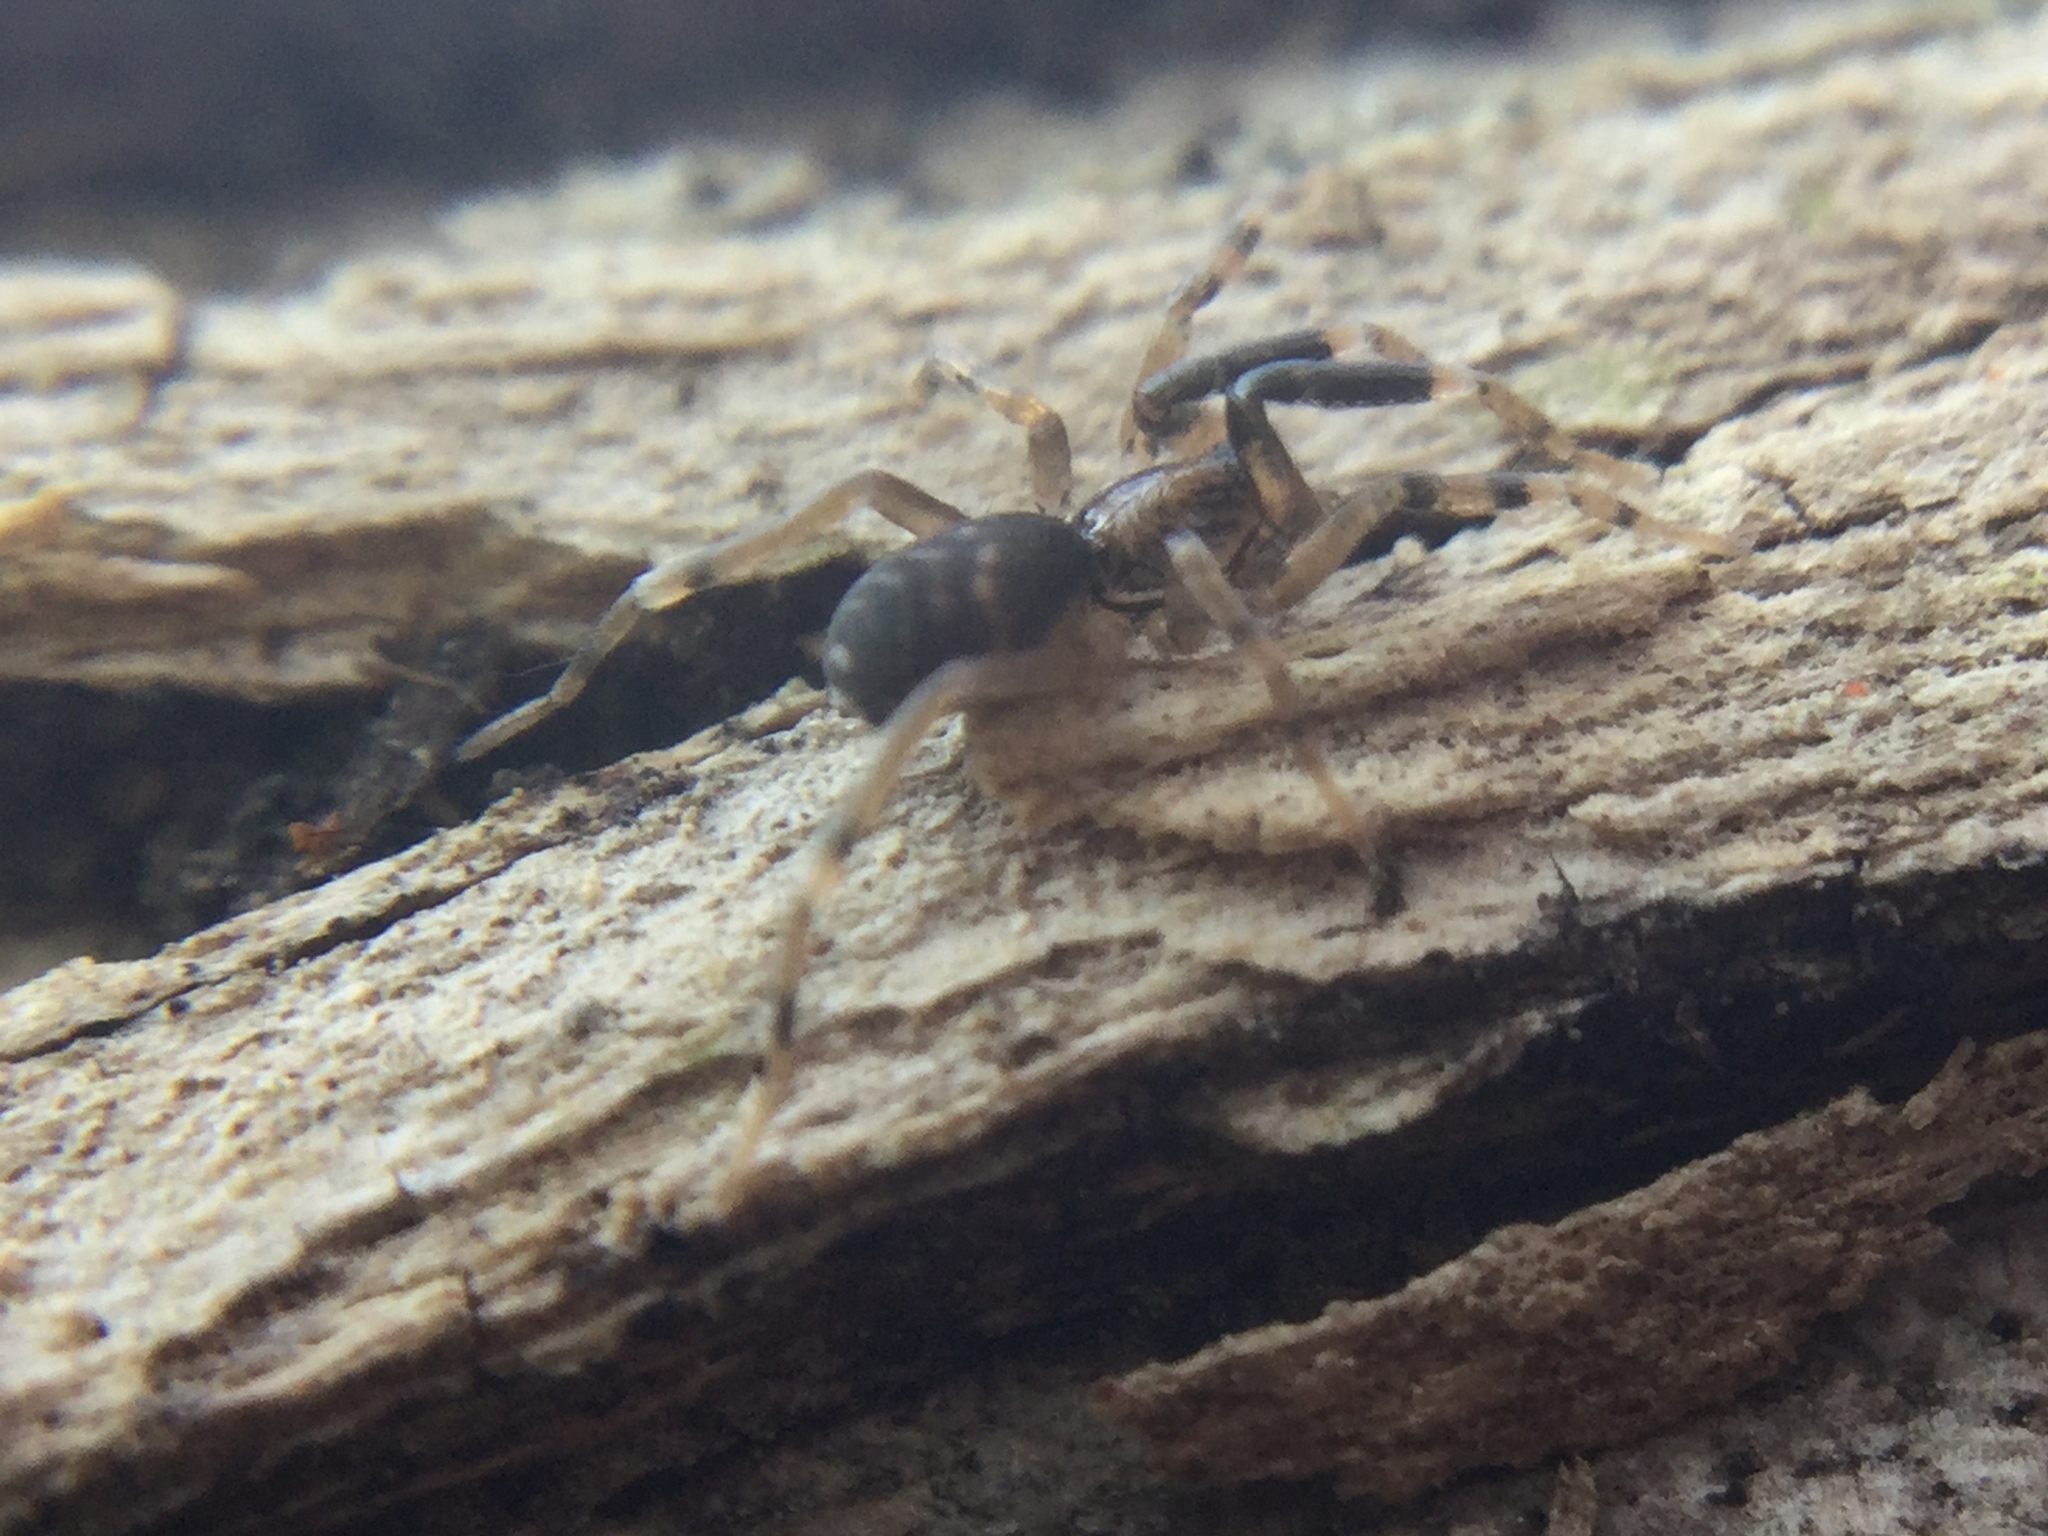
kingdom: Animalia
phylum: Arthropoda
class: Arachnida
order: Araneae
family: Phrurolithidae
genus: Phrurotimpus
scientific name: Phrurotimpus borealis
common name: Greater ant-mimic corinne spider
